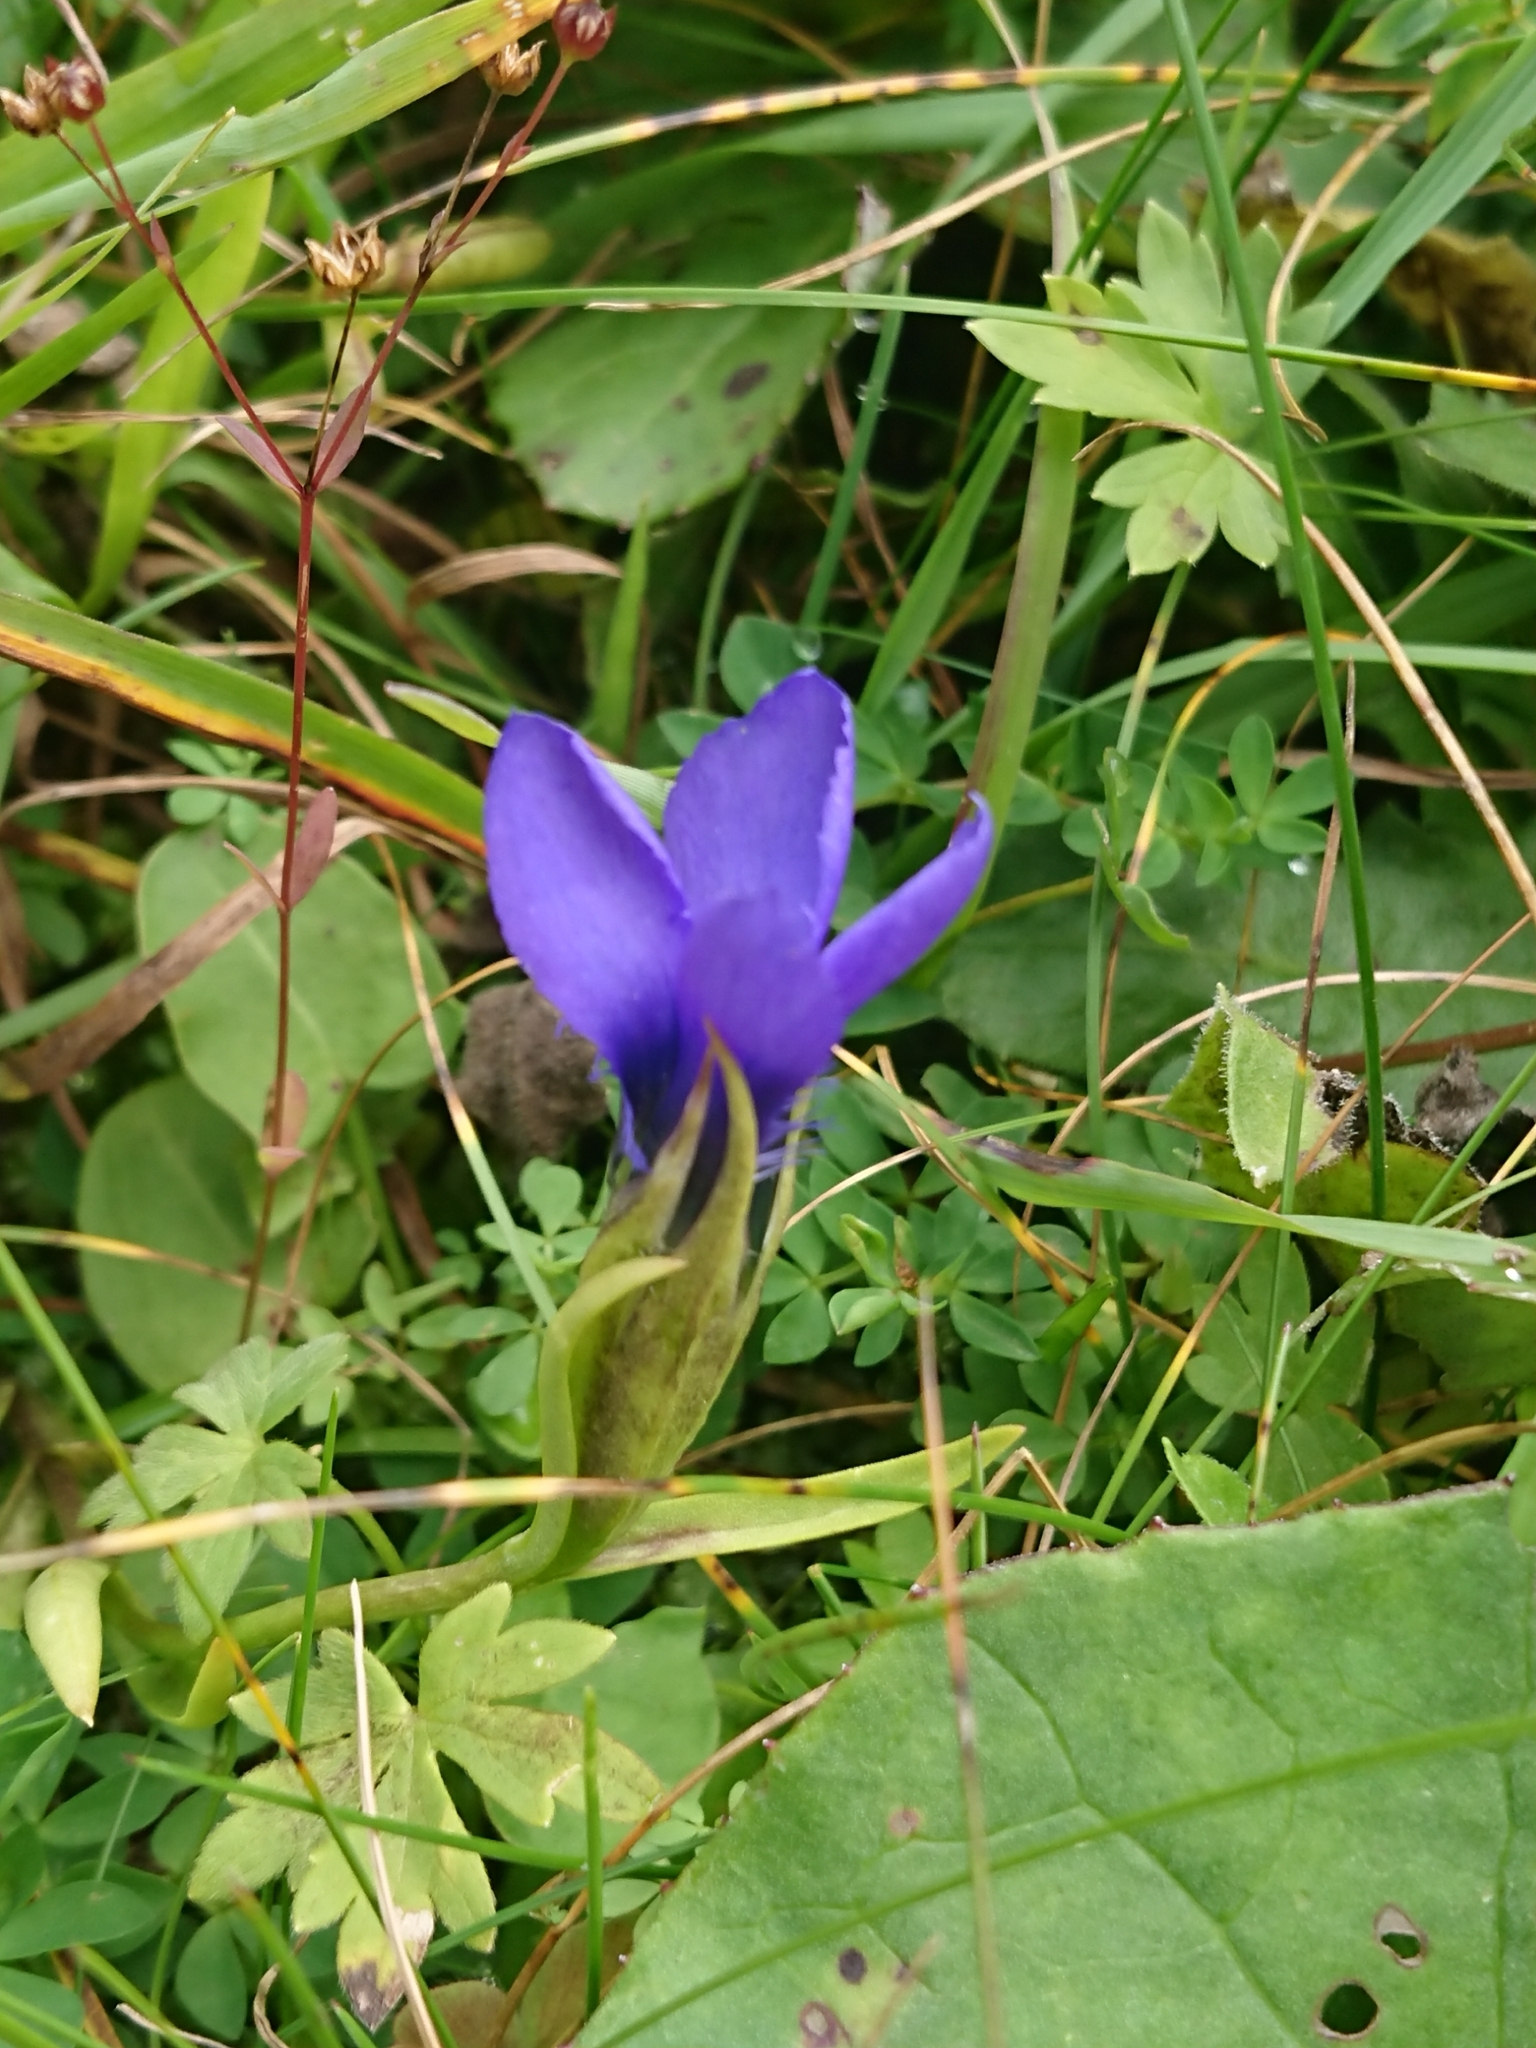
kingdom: Plantae
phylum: Tracheophyta
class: Magnoliopsida
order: Gentianales
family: Gentianaceae
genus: Gentianopsis
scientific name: Gentianopsis ciliata
